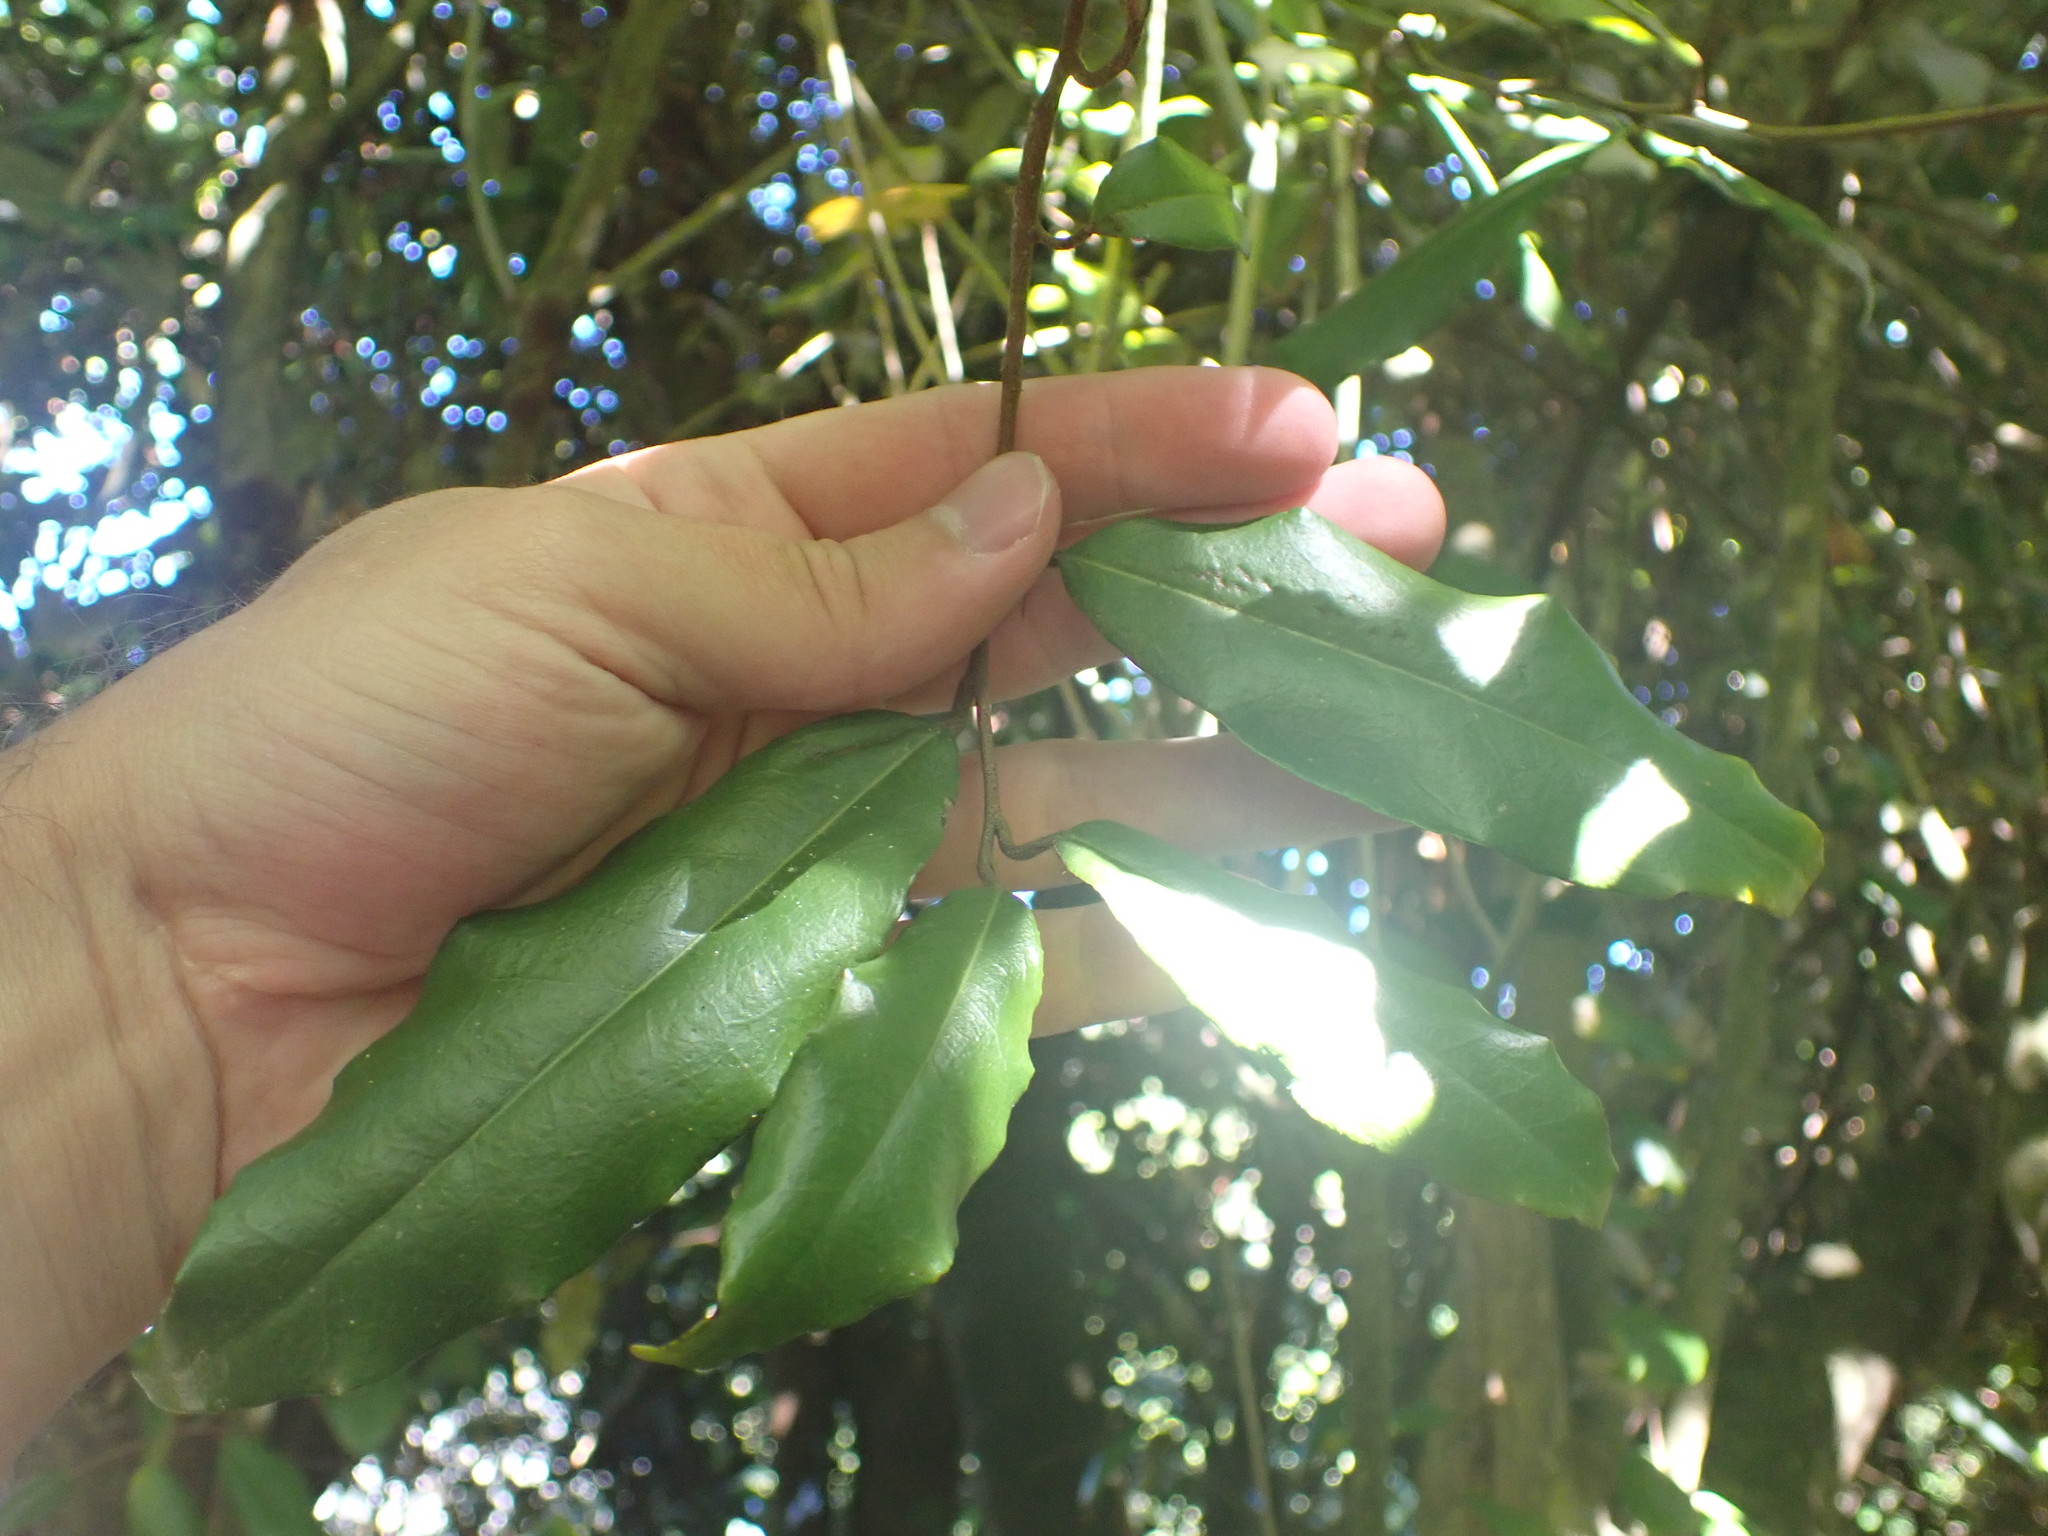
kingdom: Plantae
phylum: Tracheophyta
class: Magnoliopsida
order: Rosales
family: Elaeagnaceae
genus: Elaeagnus
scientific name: Elaeagnus reflexa
